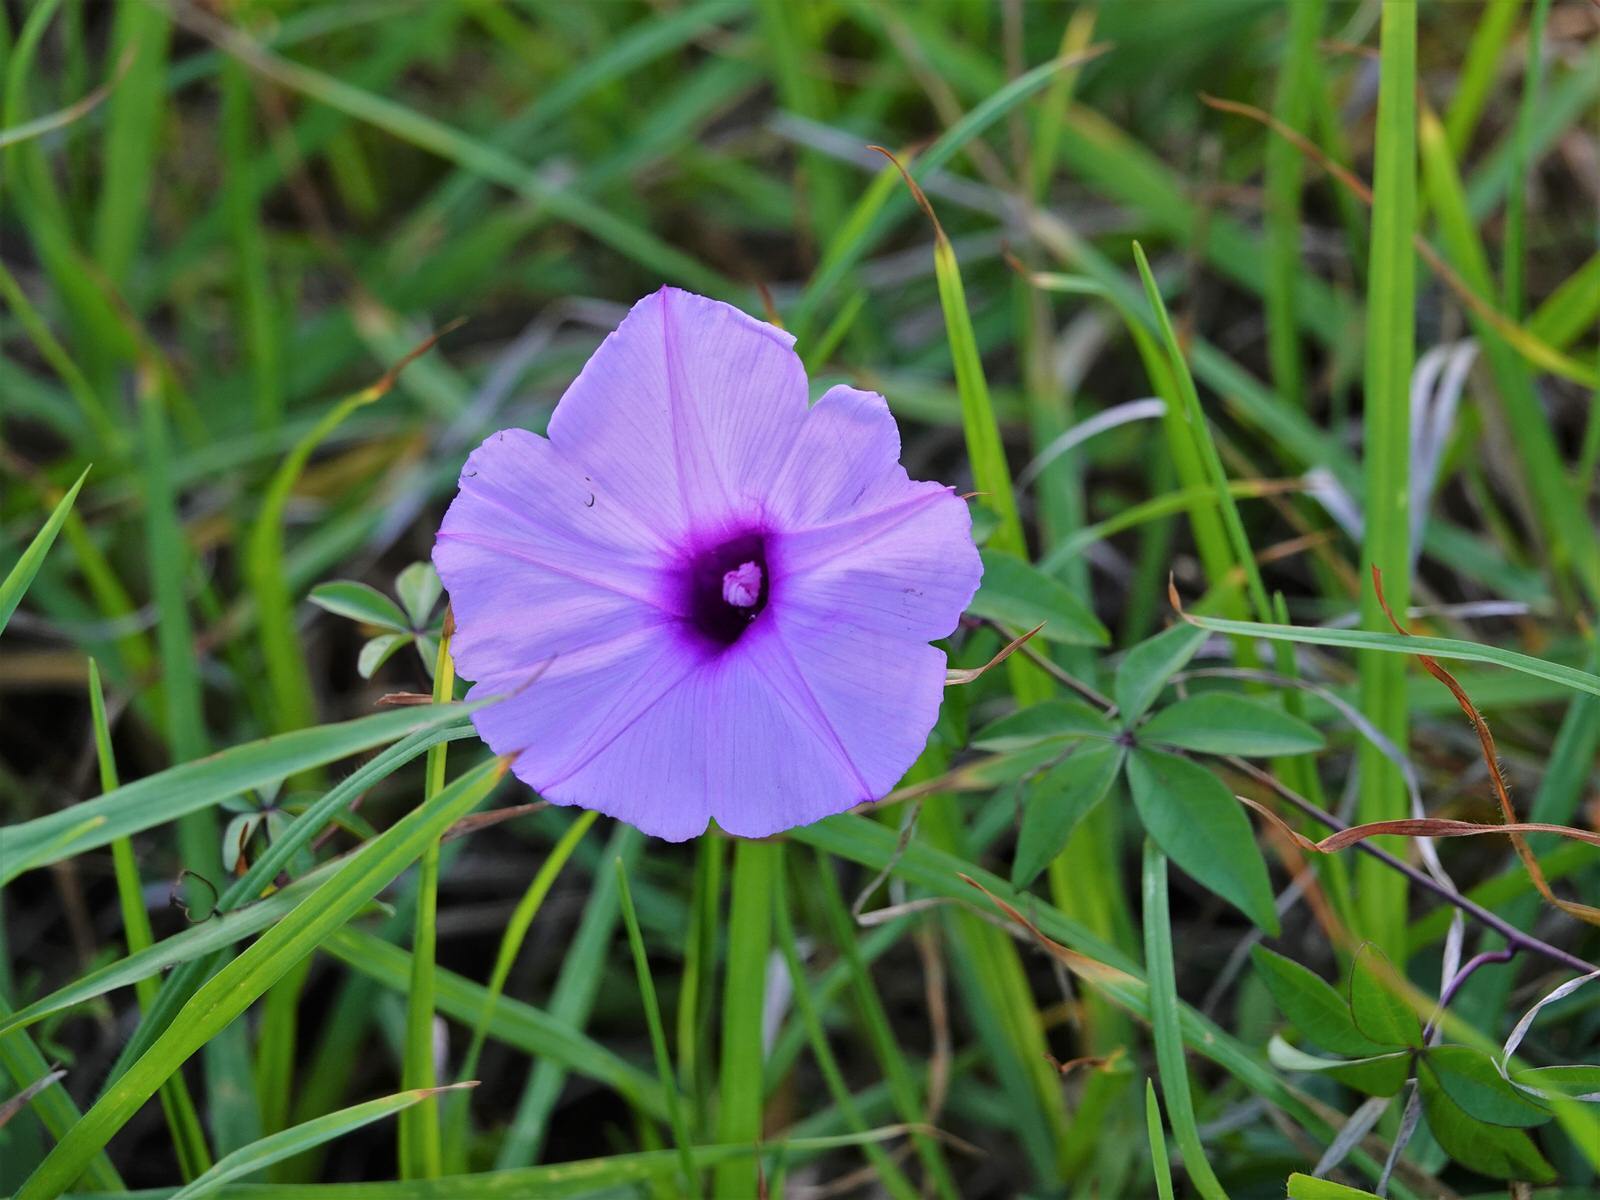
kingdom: Plantae
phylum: Tracheophyta
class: Magnoliopsida
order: Solanales
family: Convolvulaceae
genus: Ipomoea
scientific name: Ipomoea cairica
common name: Mile a minute vine
